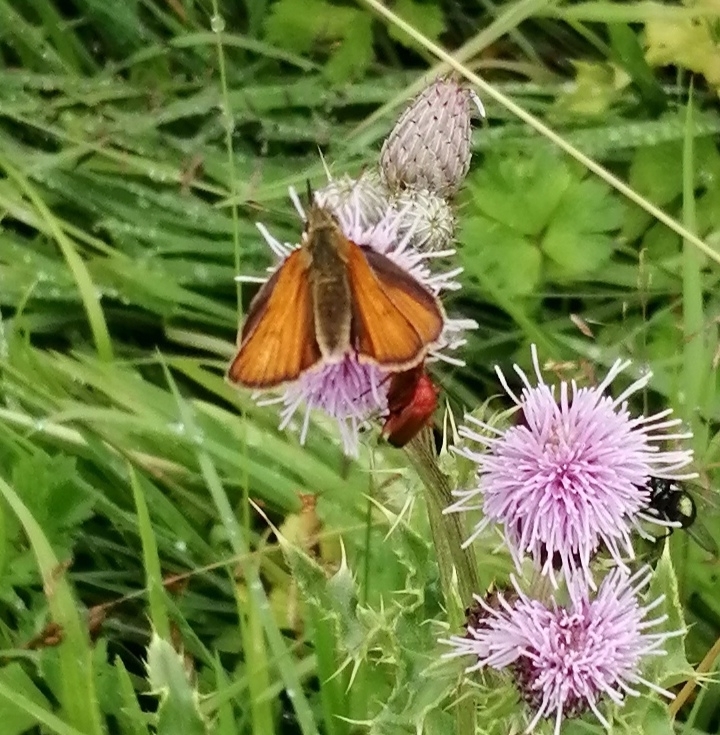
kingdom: Animalia
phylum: Arthropoda
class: Insecta
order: Lepidoptera
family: Hesperiidae
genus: Thymelicus
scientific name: Thymelicus sylvestris
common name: Small skipper
